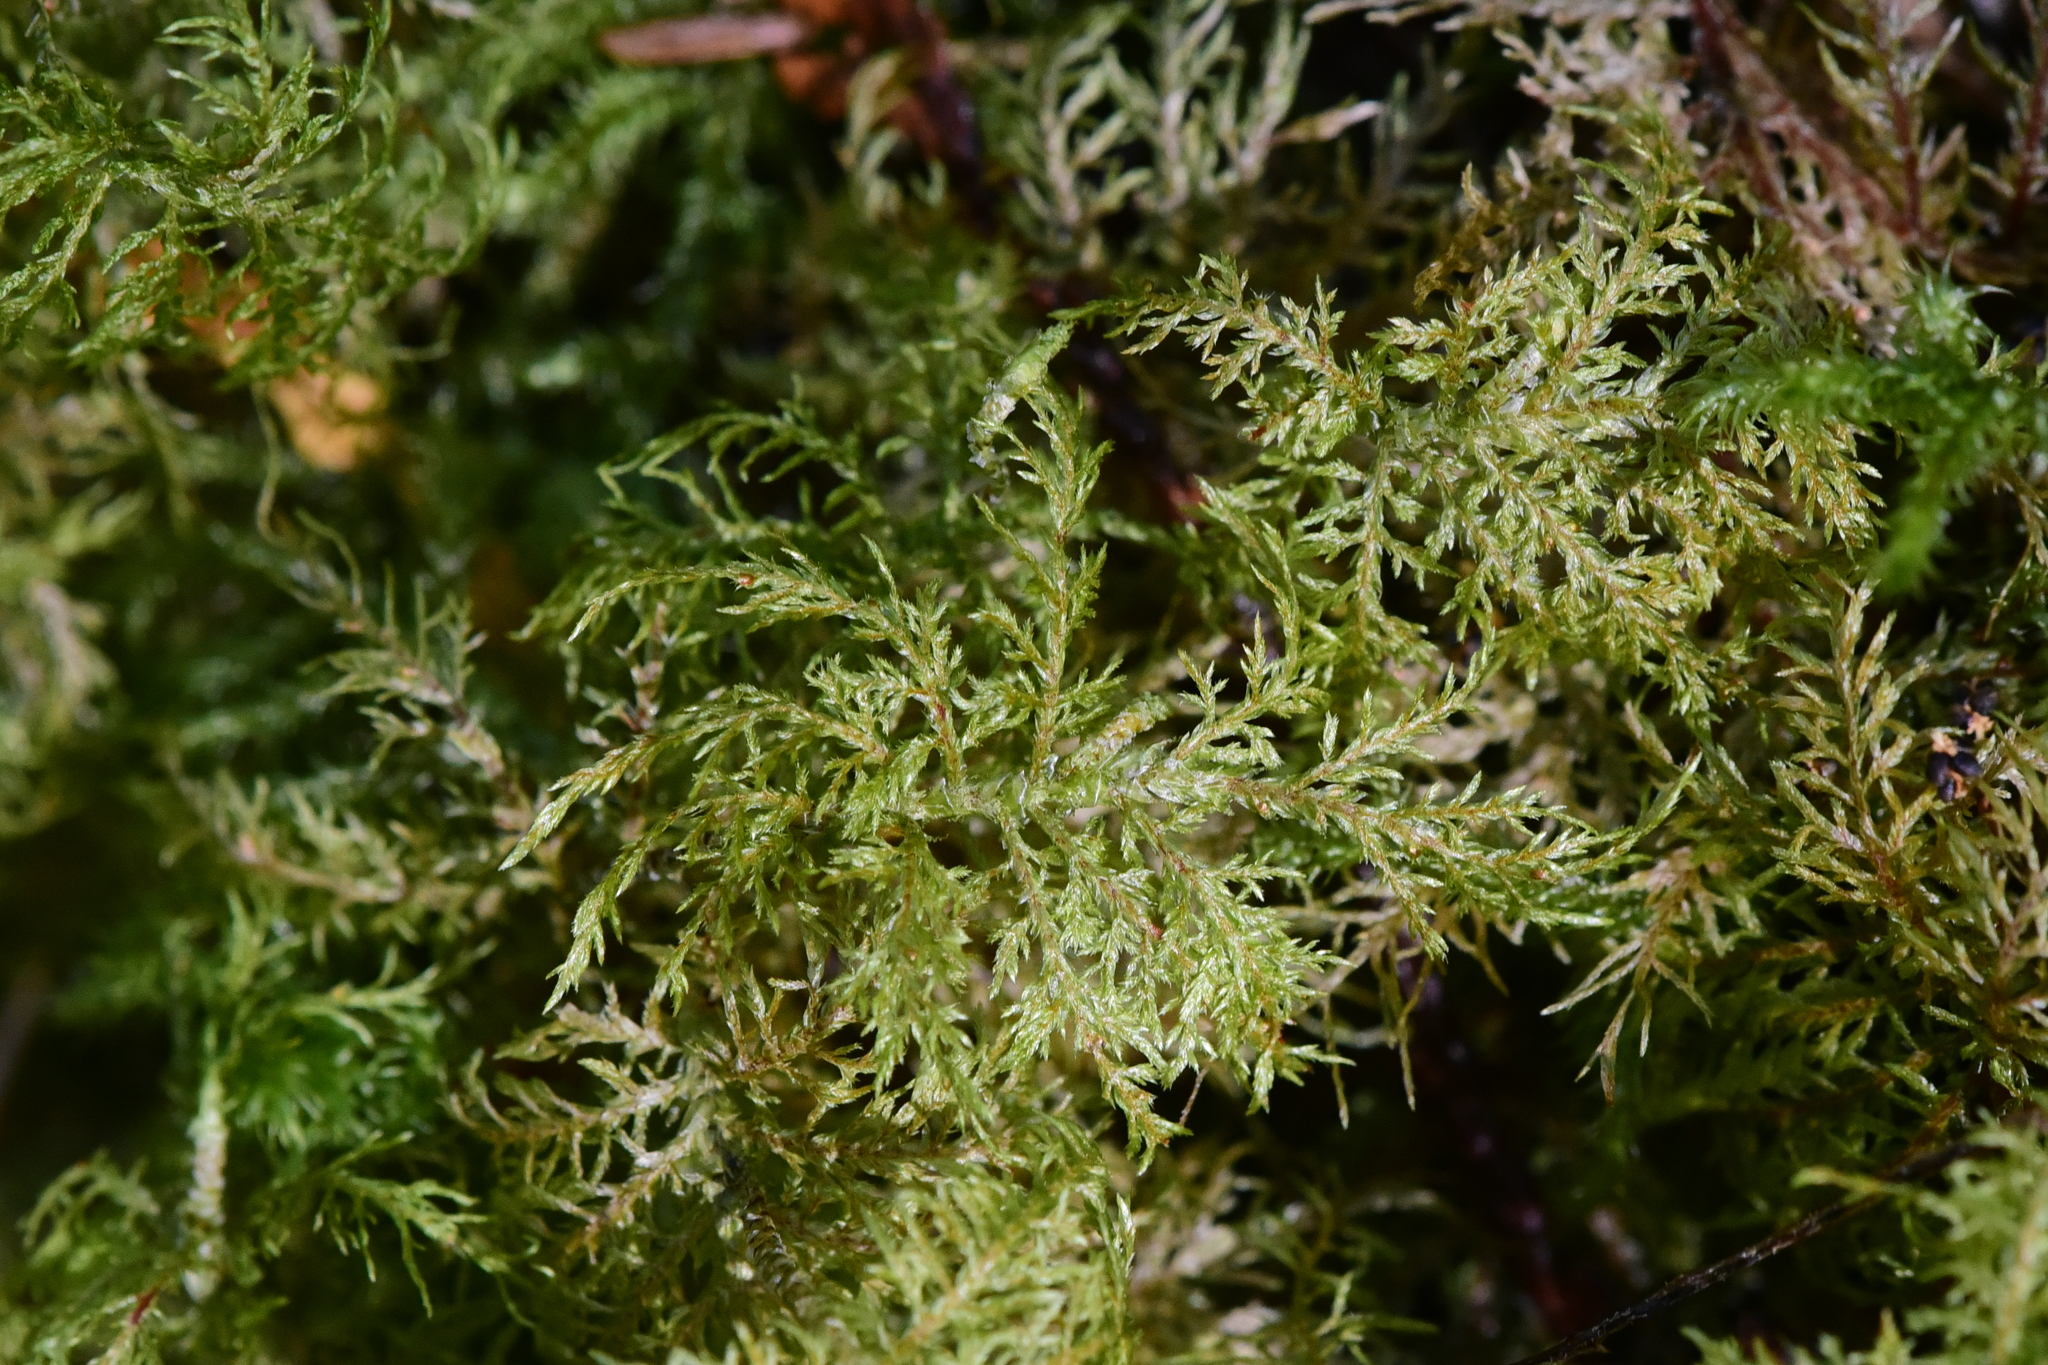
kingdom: Plantae
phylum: Bryophyta
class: Bryopsida
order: Hypnales
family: Hylocomiaceae
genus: Hylocomium
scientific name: Hylocomium splendens
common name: Stairstep moss
